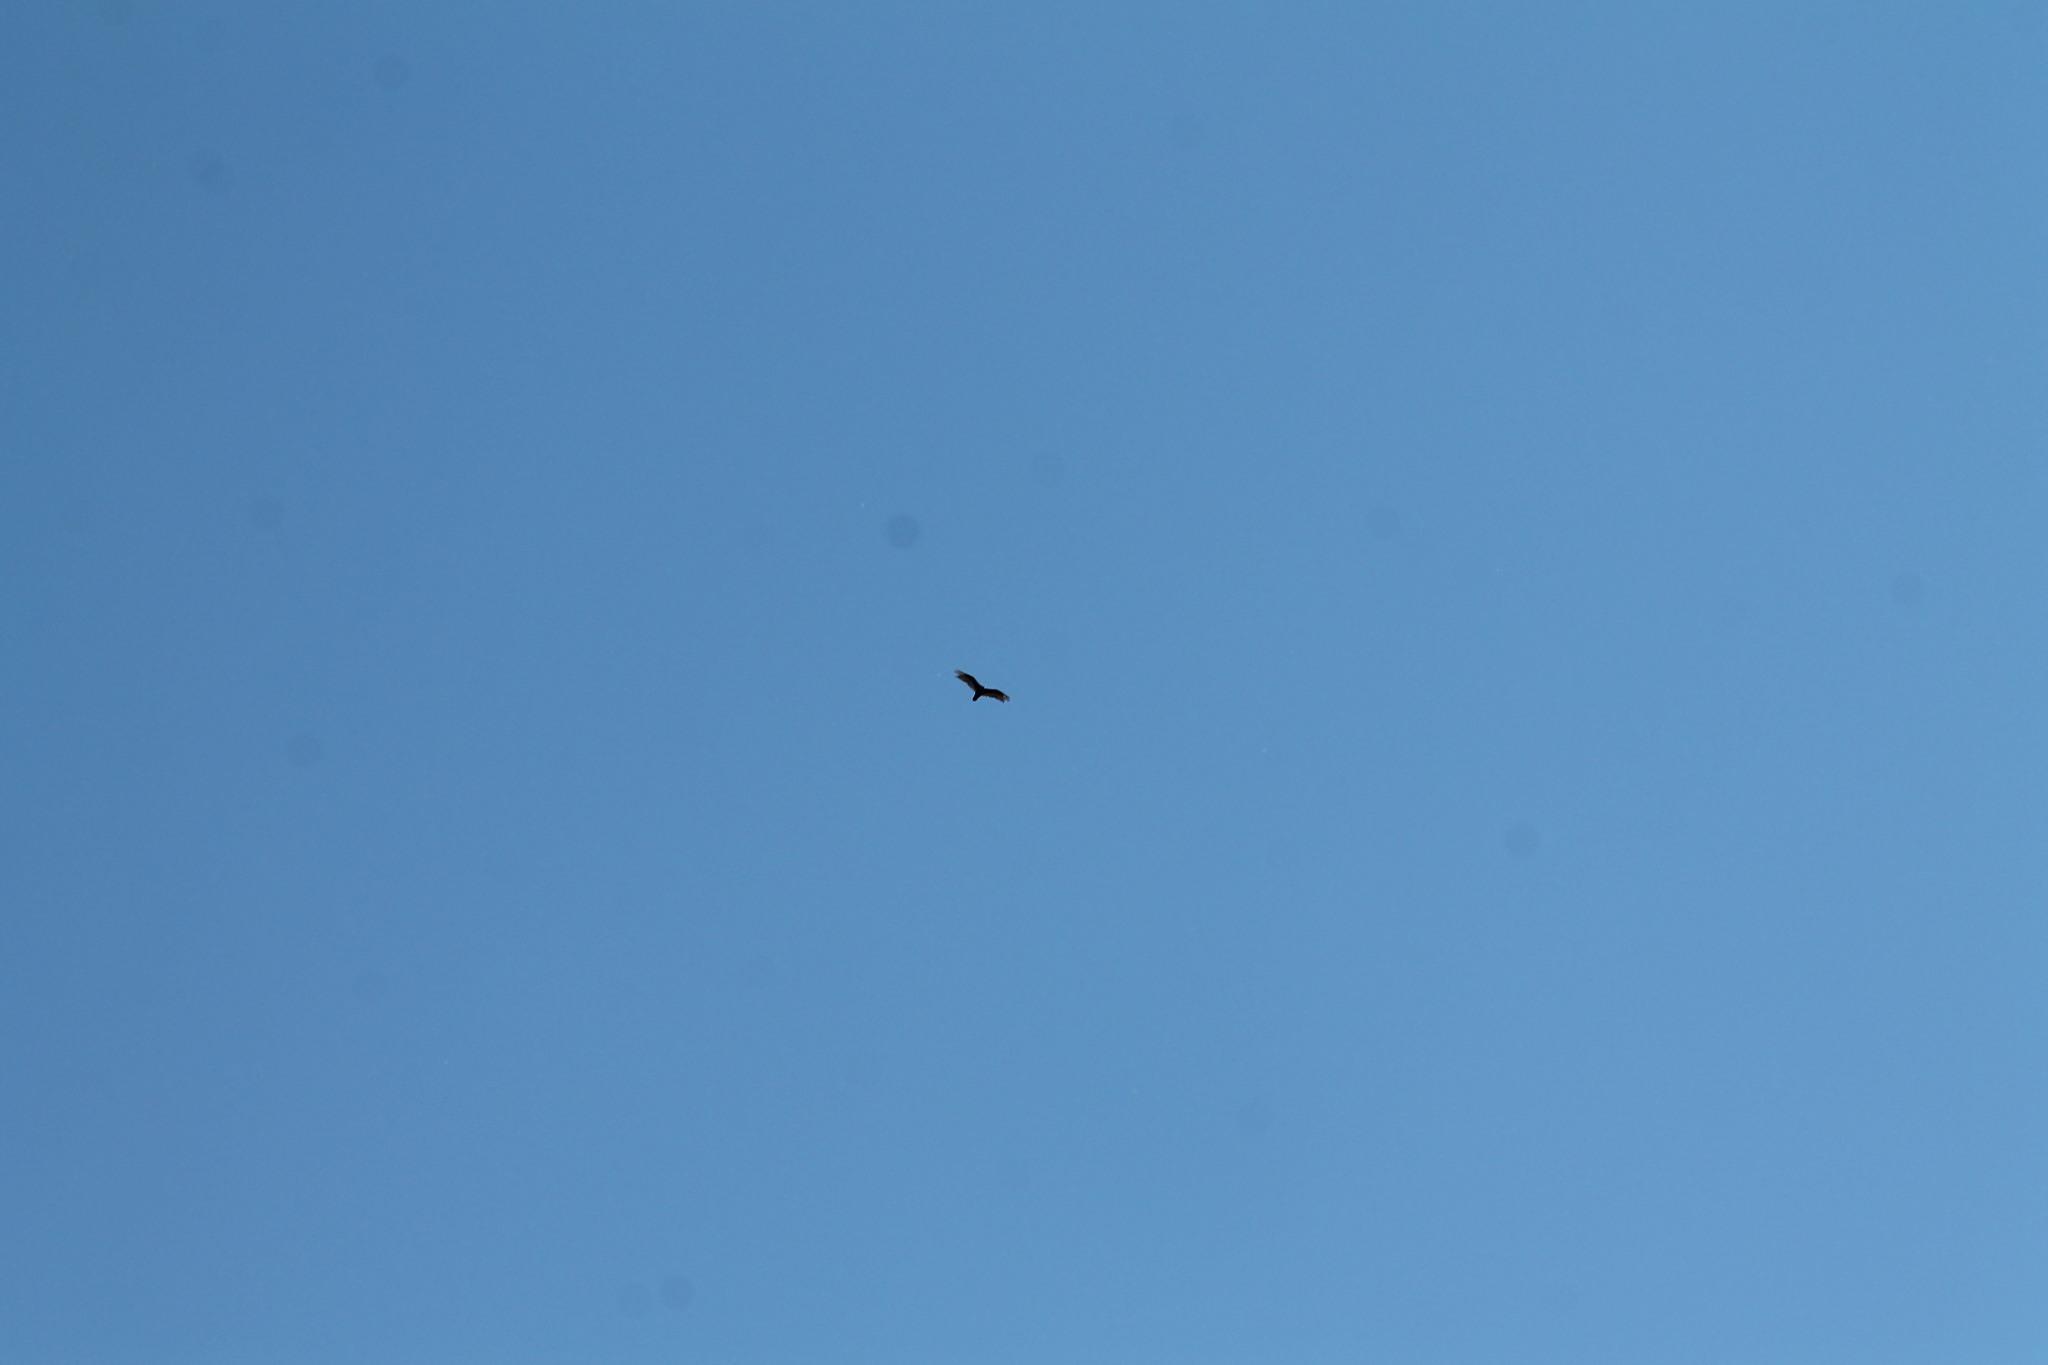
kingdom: Animalia
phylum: Chordata
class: Aves
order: Accipitriformes
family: Cathartidae
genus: Cathartes
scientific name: Cathartes aura
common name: Turkey vulture
